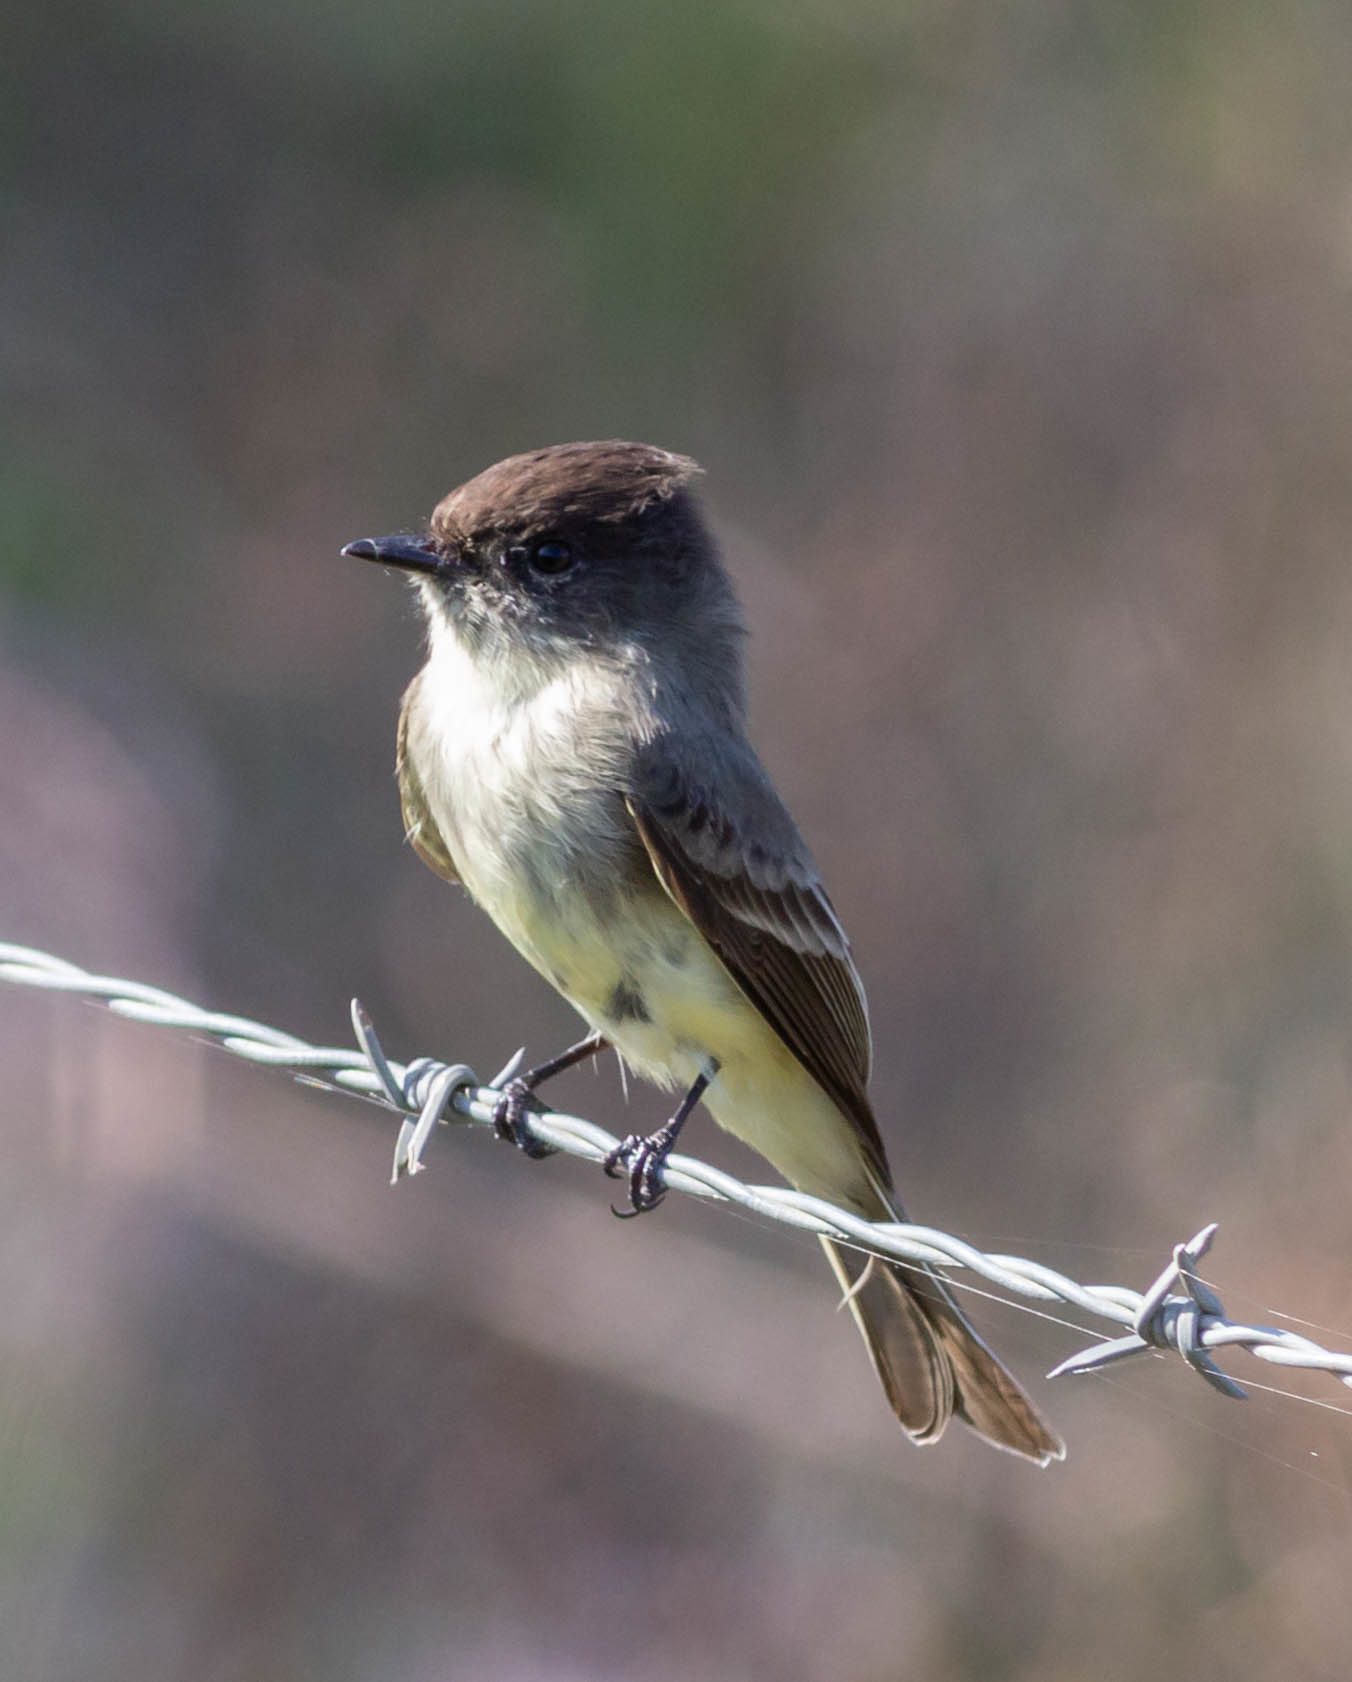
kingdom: Animalia
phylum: Chordata
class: Aves
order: Passeriformes
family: Tyrannidae
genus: Sayornis
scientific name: Sayornis phoebe
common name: Eastern phoebe
